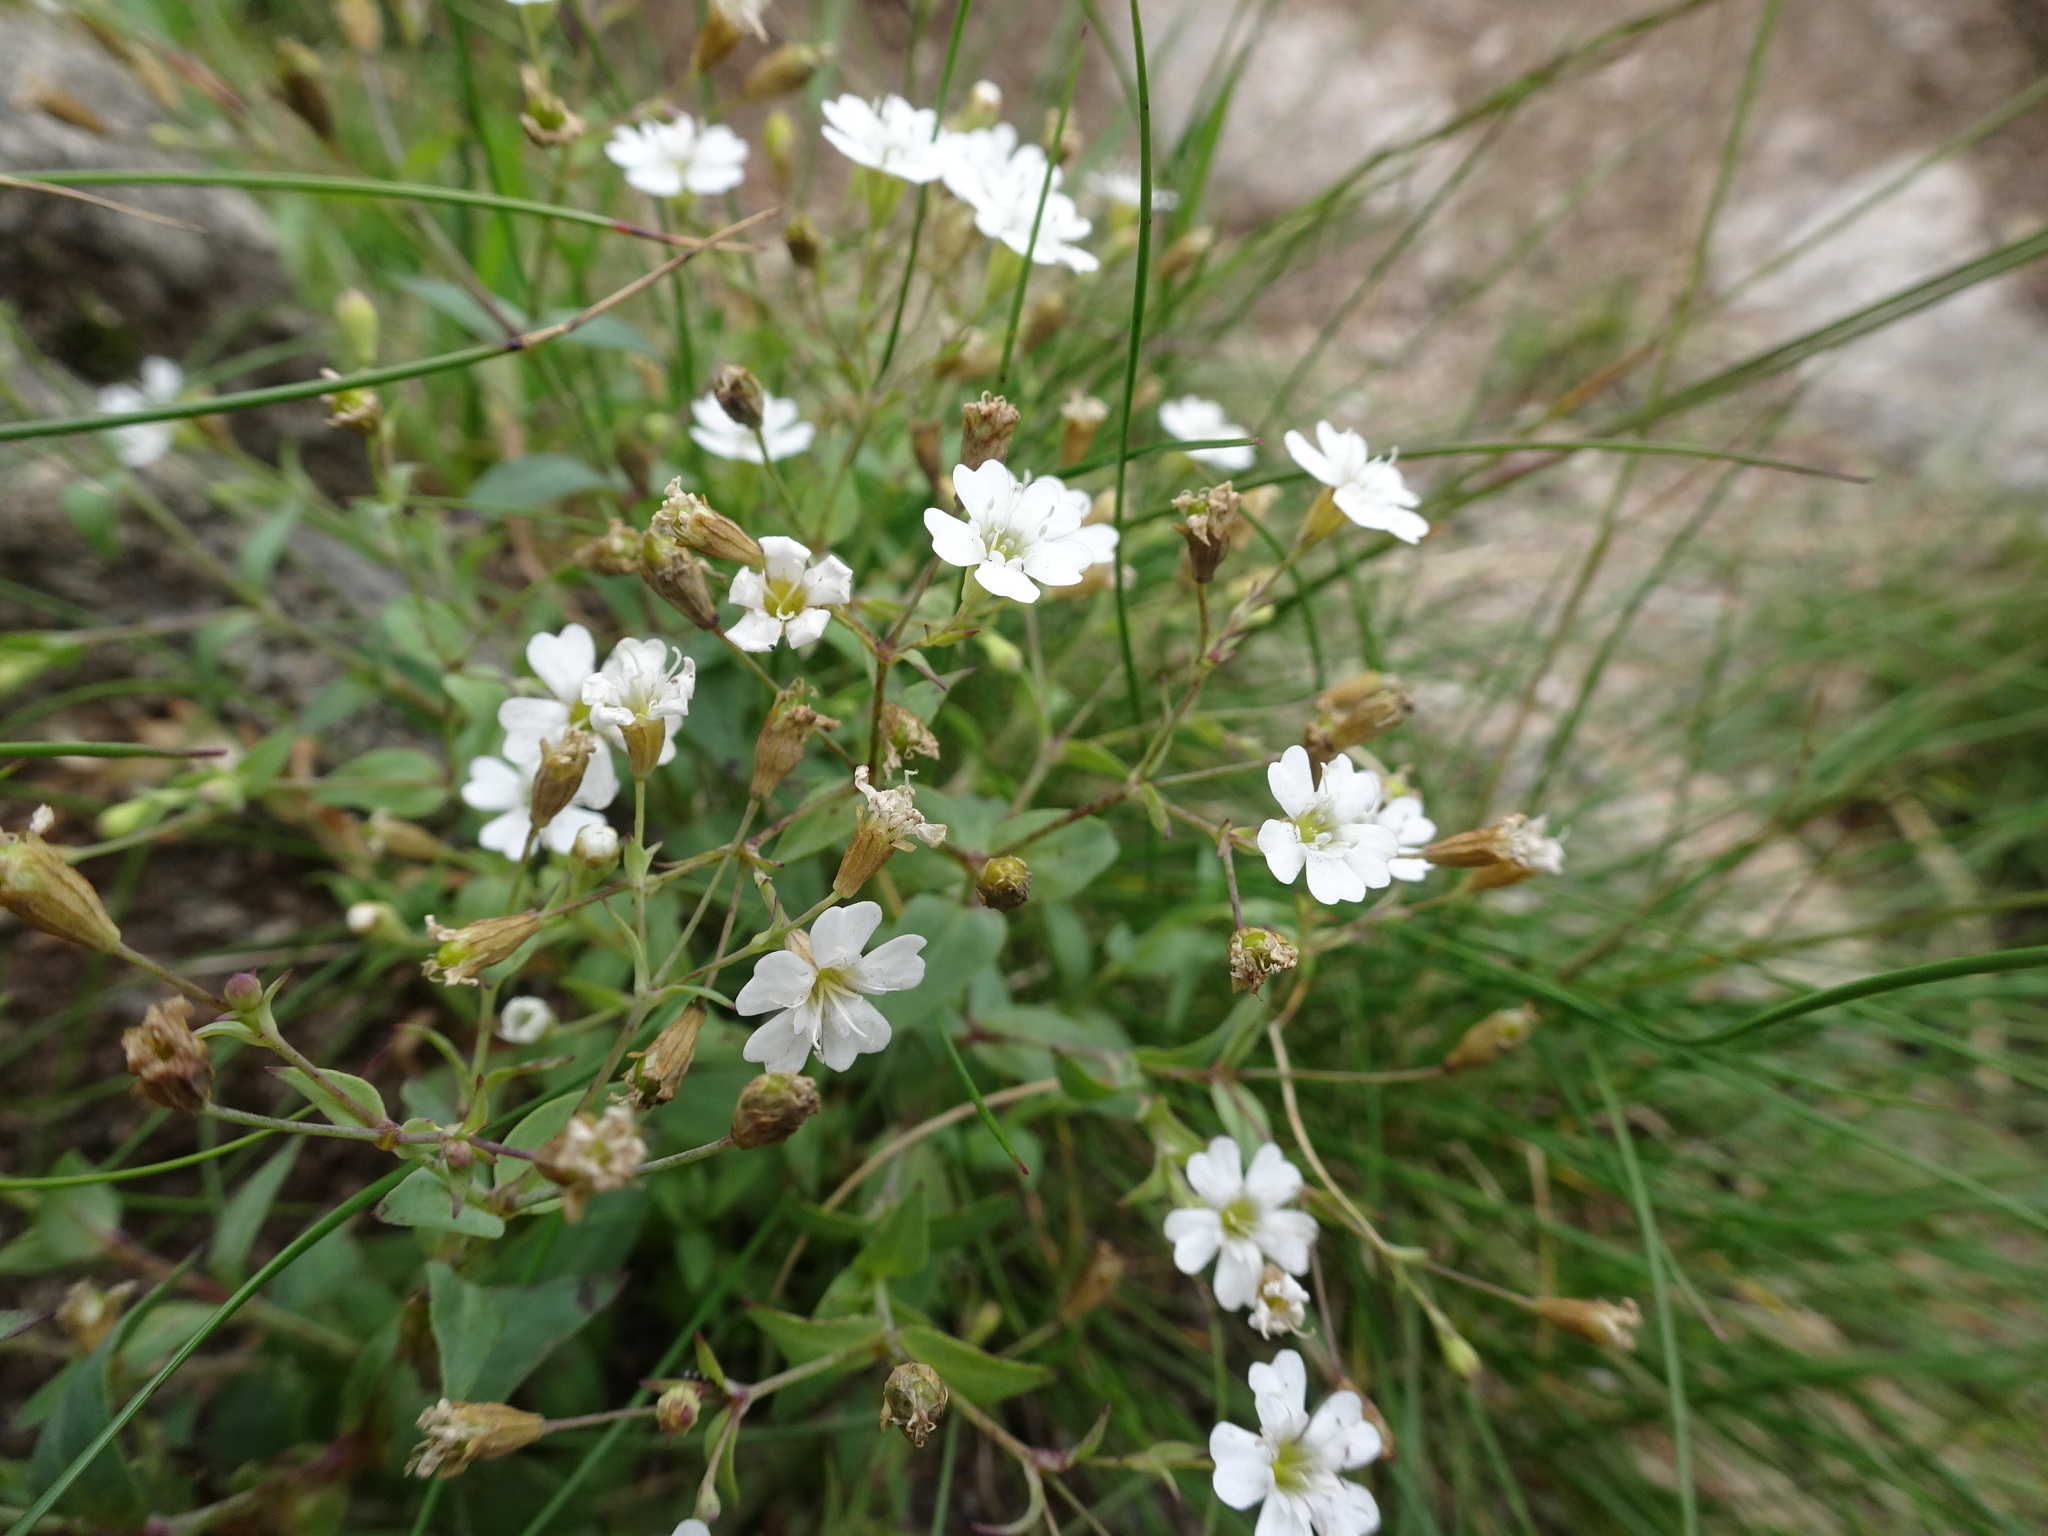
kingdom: Plantae
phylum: Tracheophyta
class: Magnoliopsida
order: Caryophyllales
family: Caryophyllaceae
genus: Atocion
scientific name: Atocion rupestre
